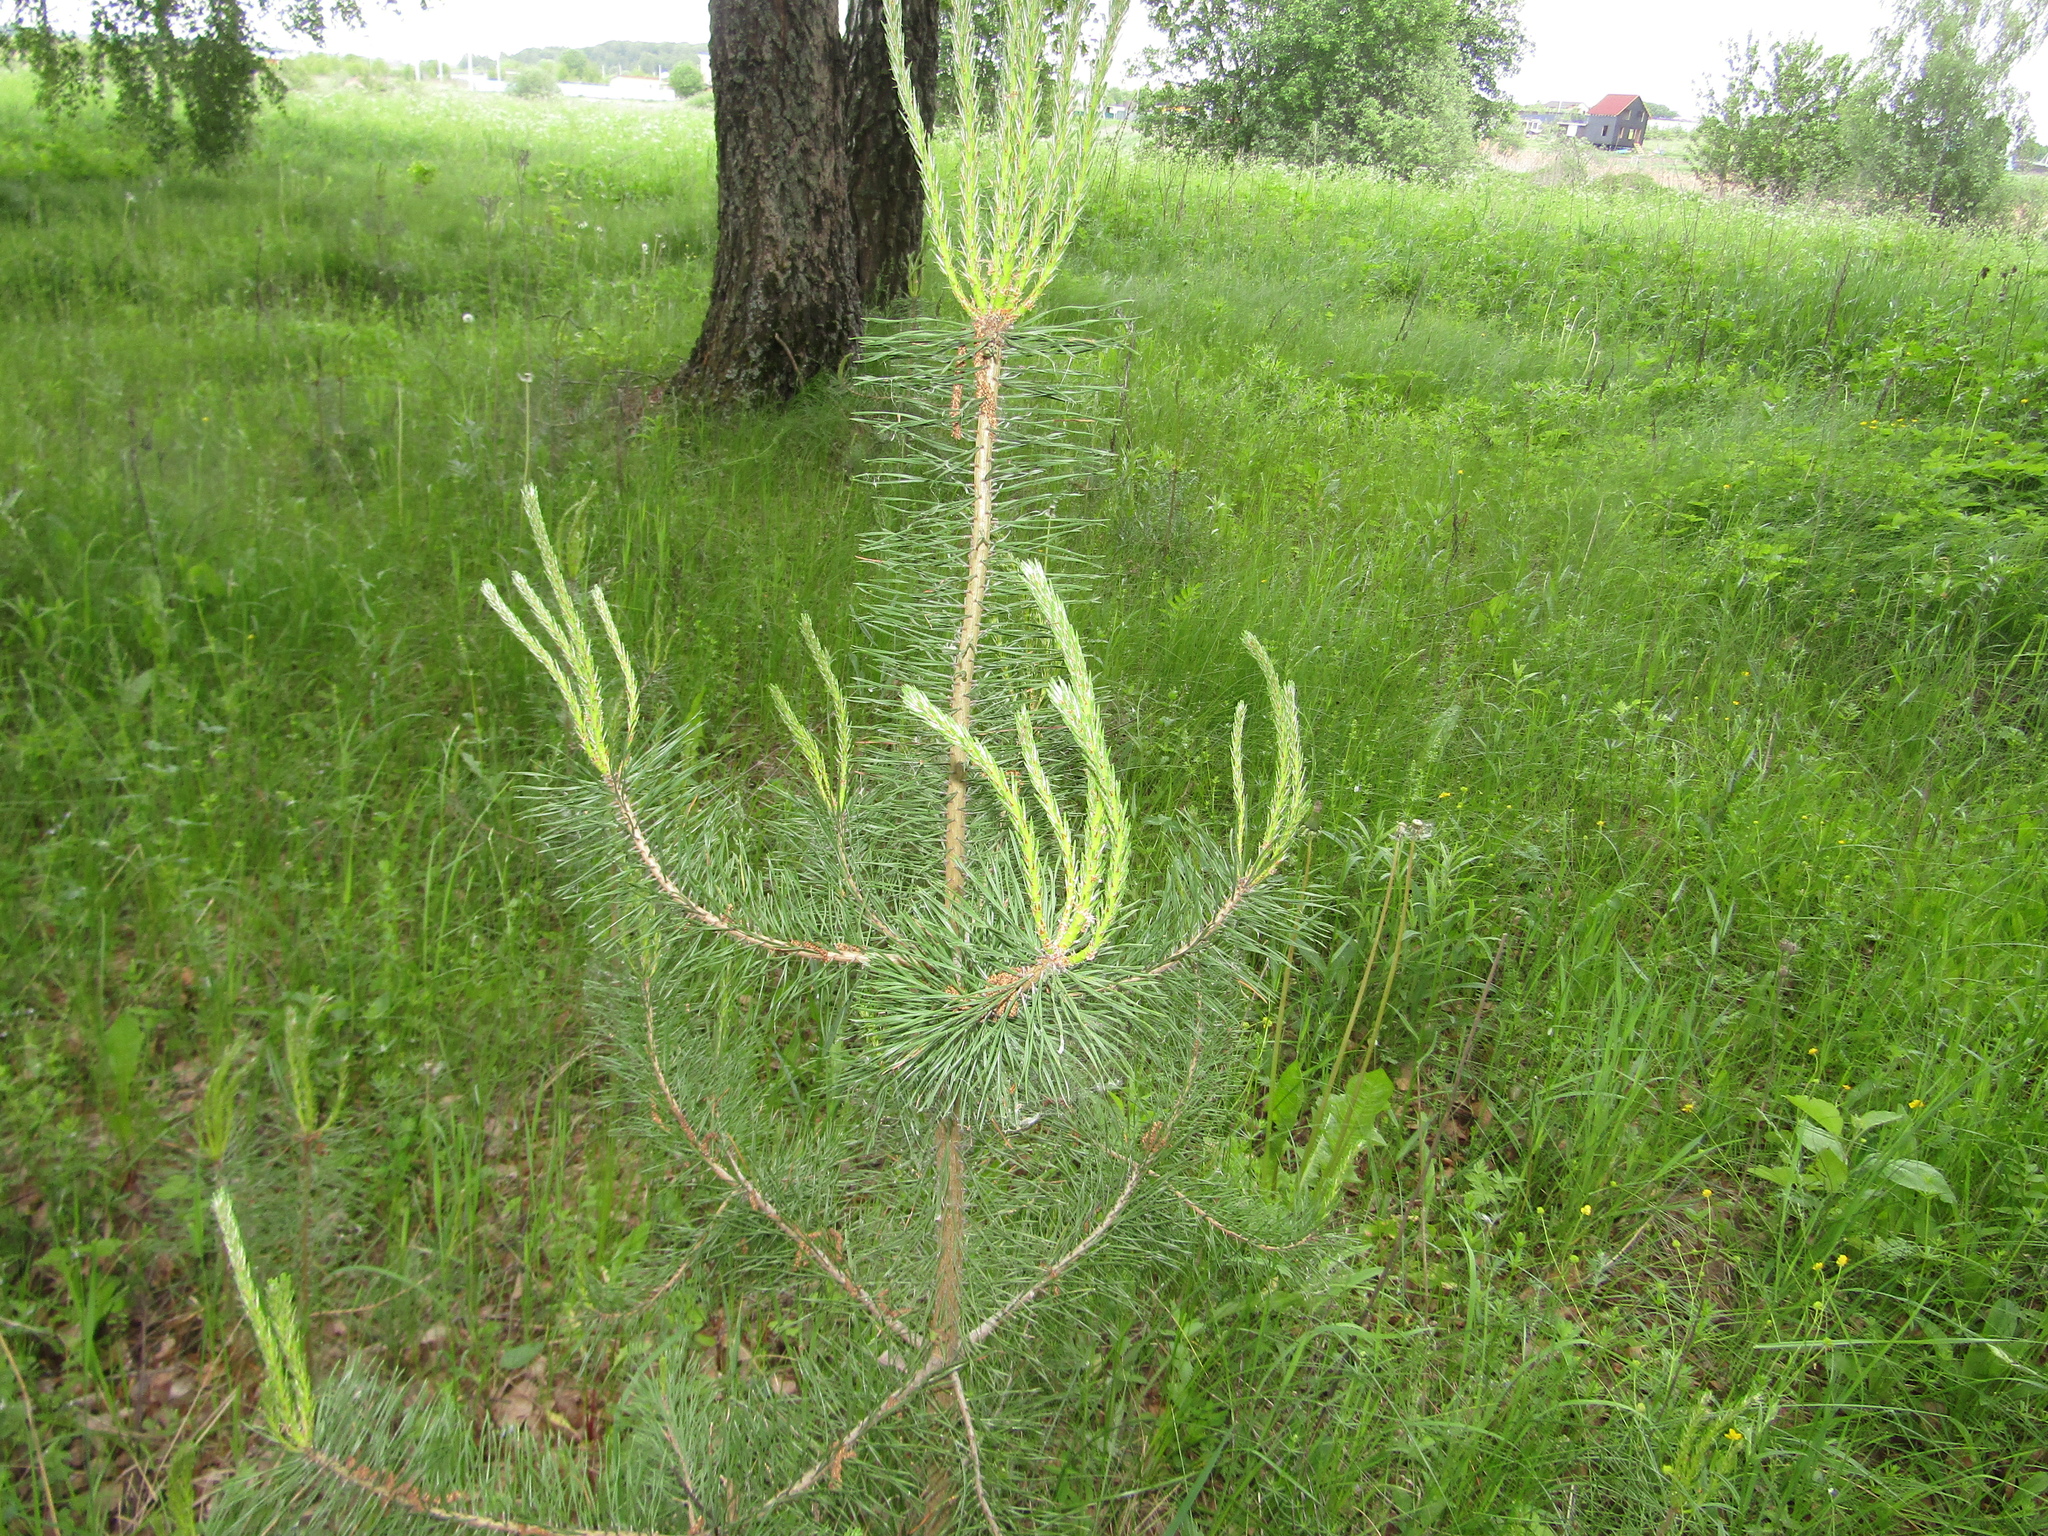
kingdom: Plantae
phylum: Tracheophyta
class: Pinopsida
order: Pinales
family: Pinaceae
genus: Pinus
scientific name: Pinus sylvestris
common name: Scots pine
